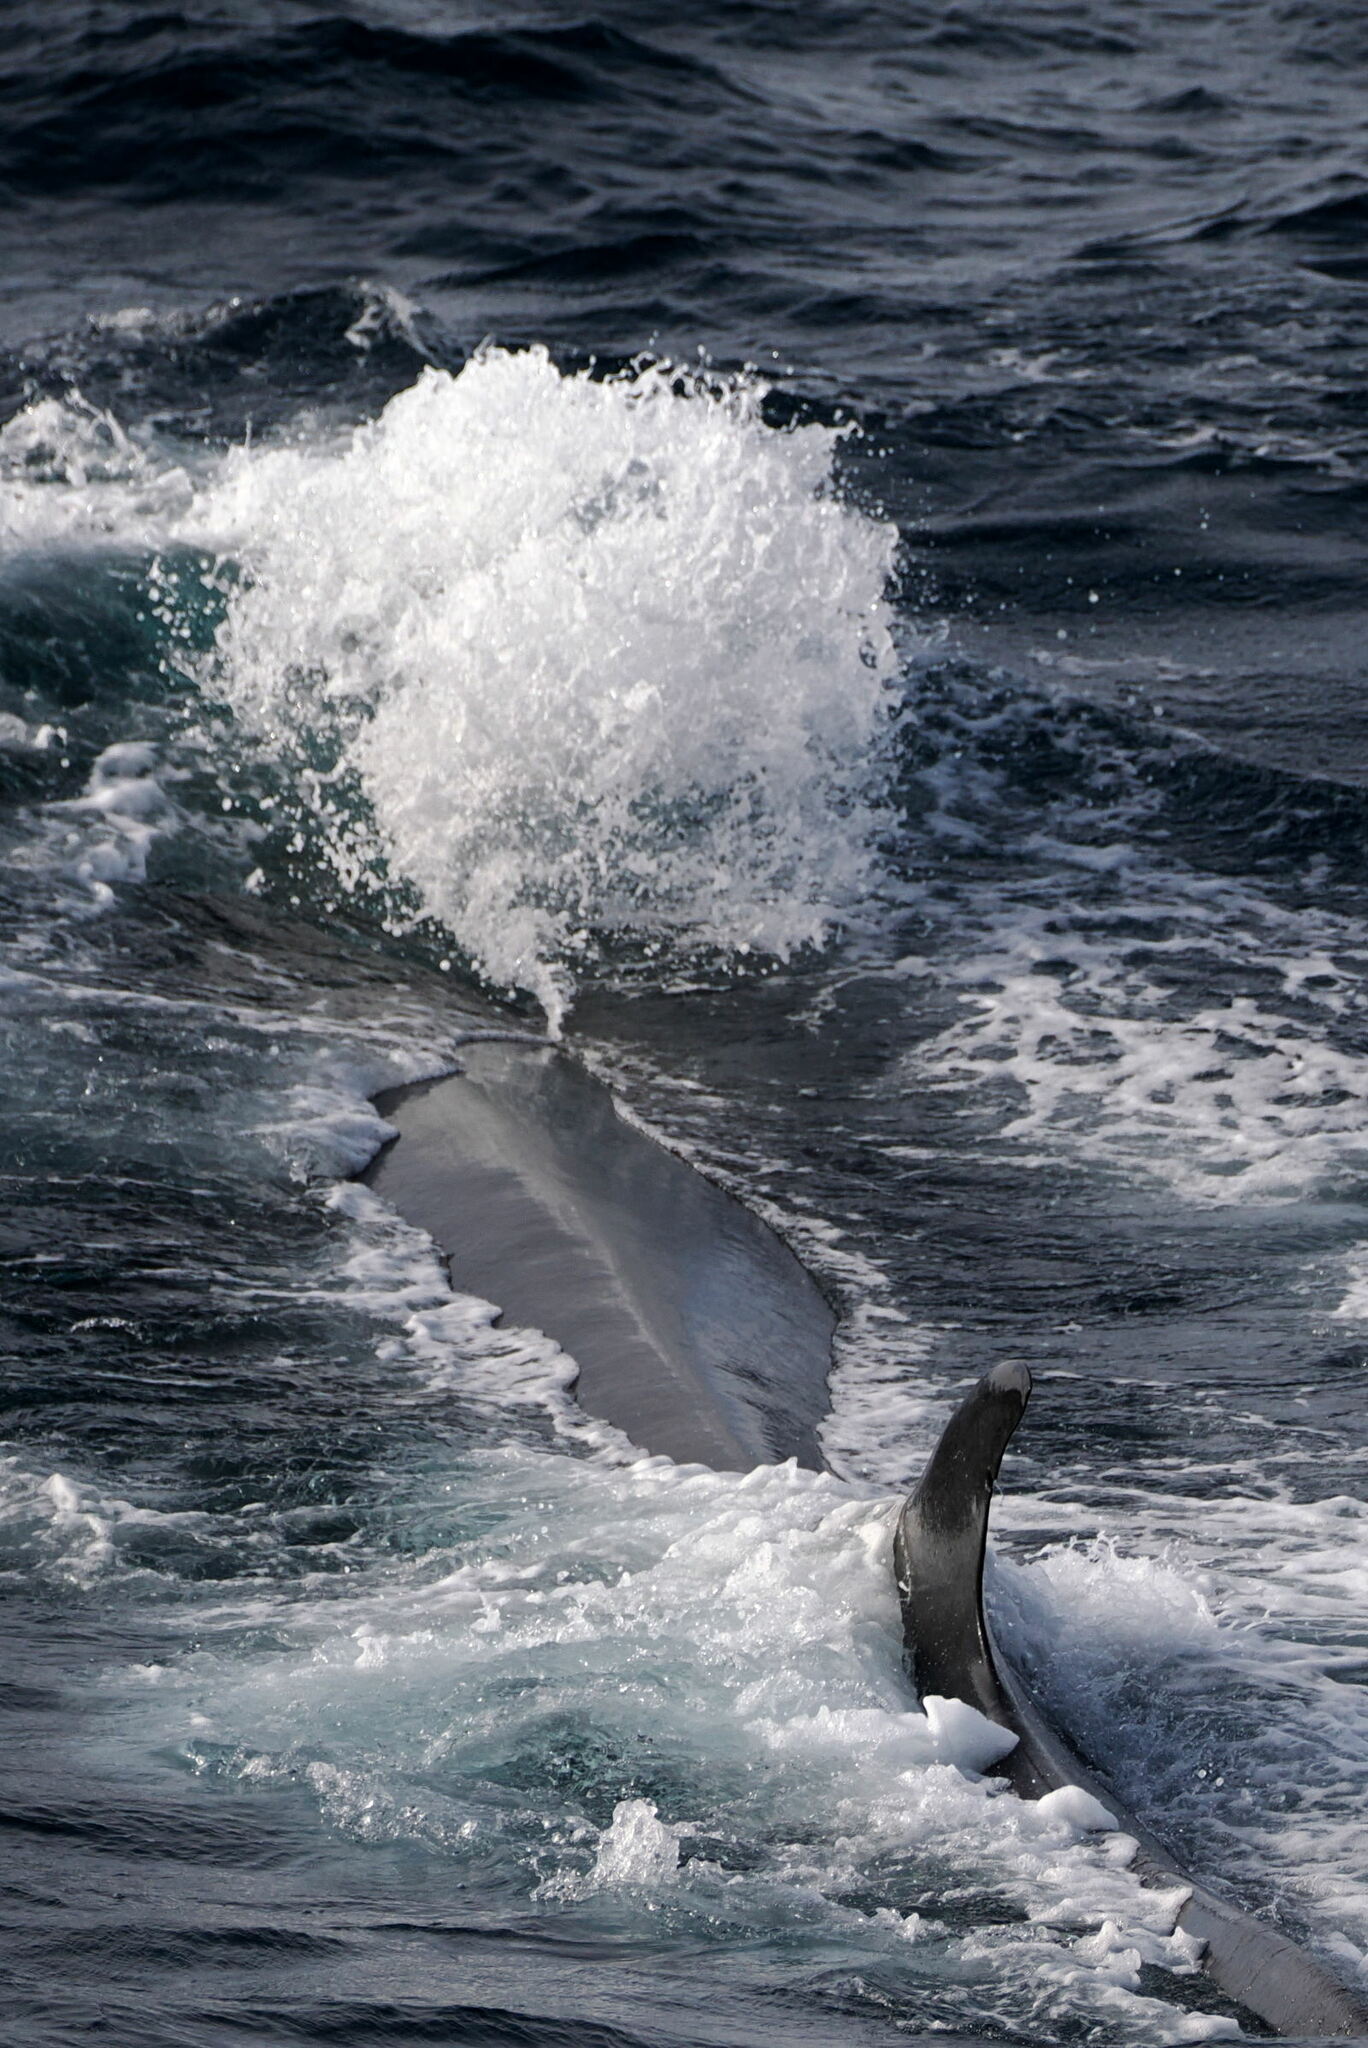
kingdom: Animalia
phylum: Chordata
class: Mammalia
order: Cetacea
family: Balaenopteridae
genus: Balaenoptera
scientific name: Balaenoptera physalus
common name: Fin whale
